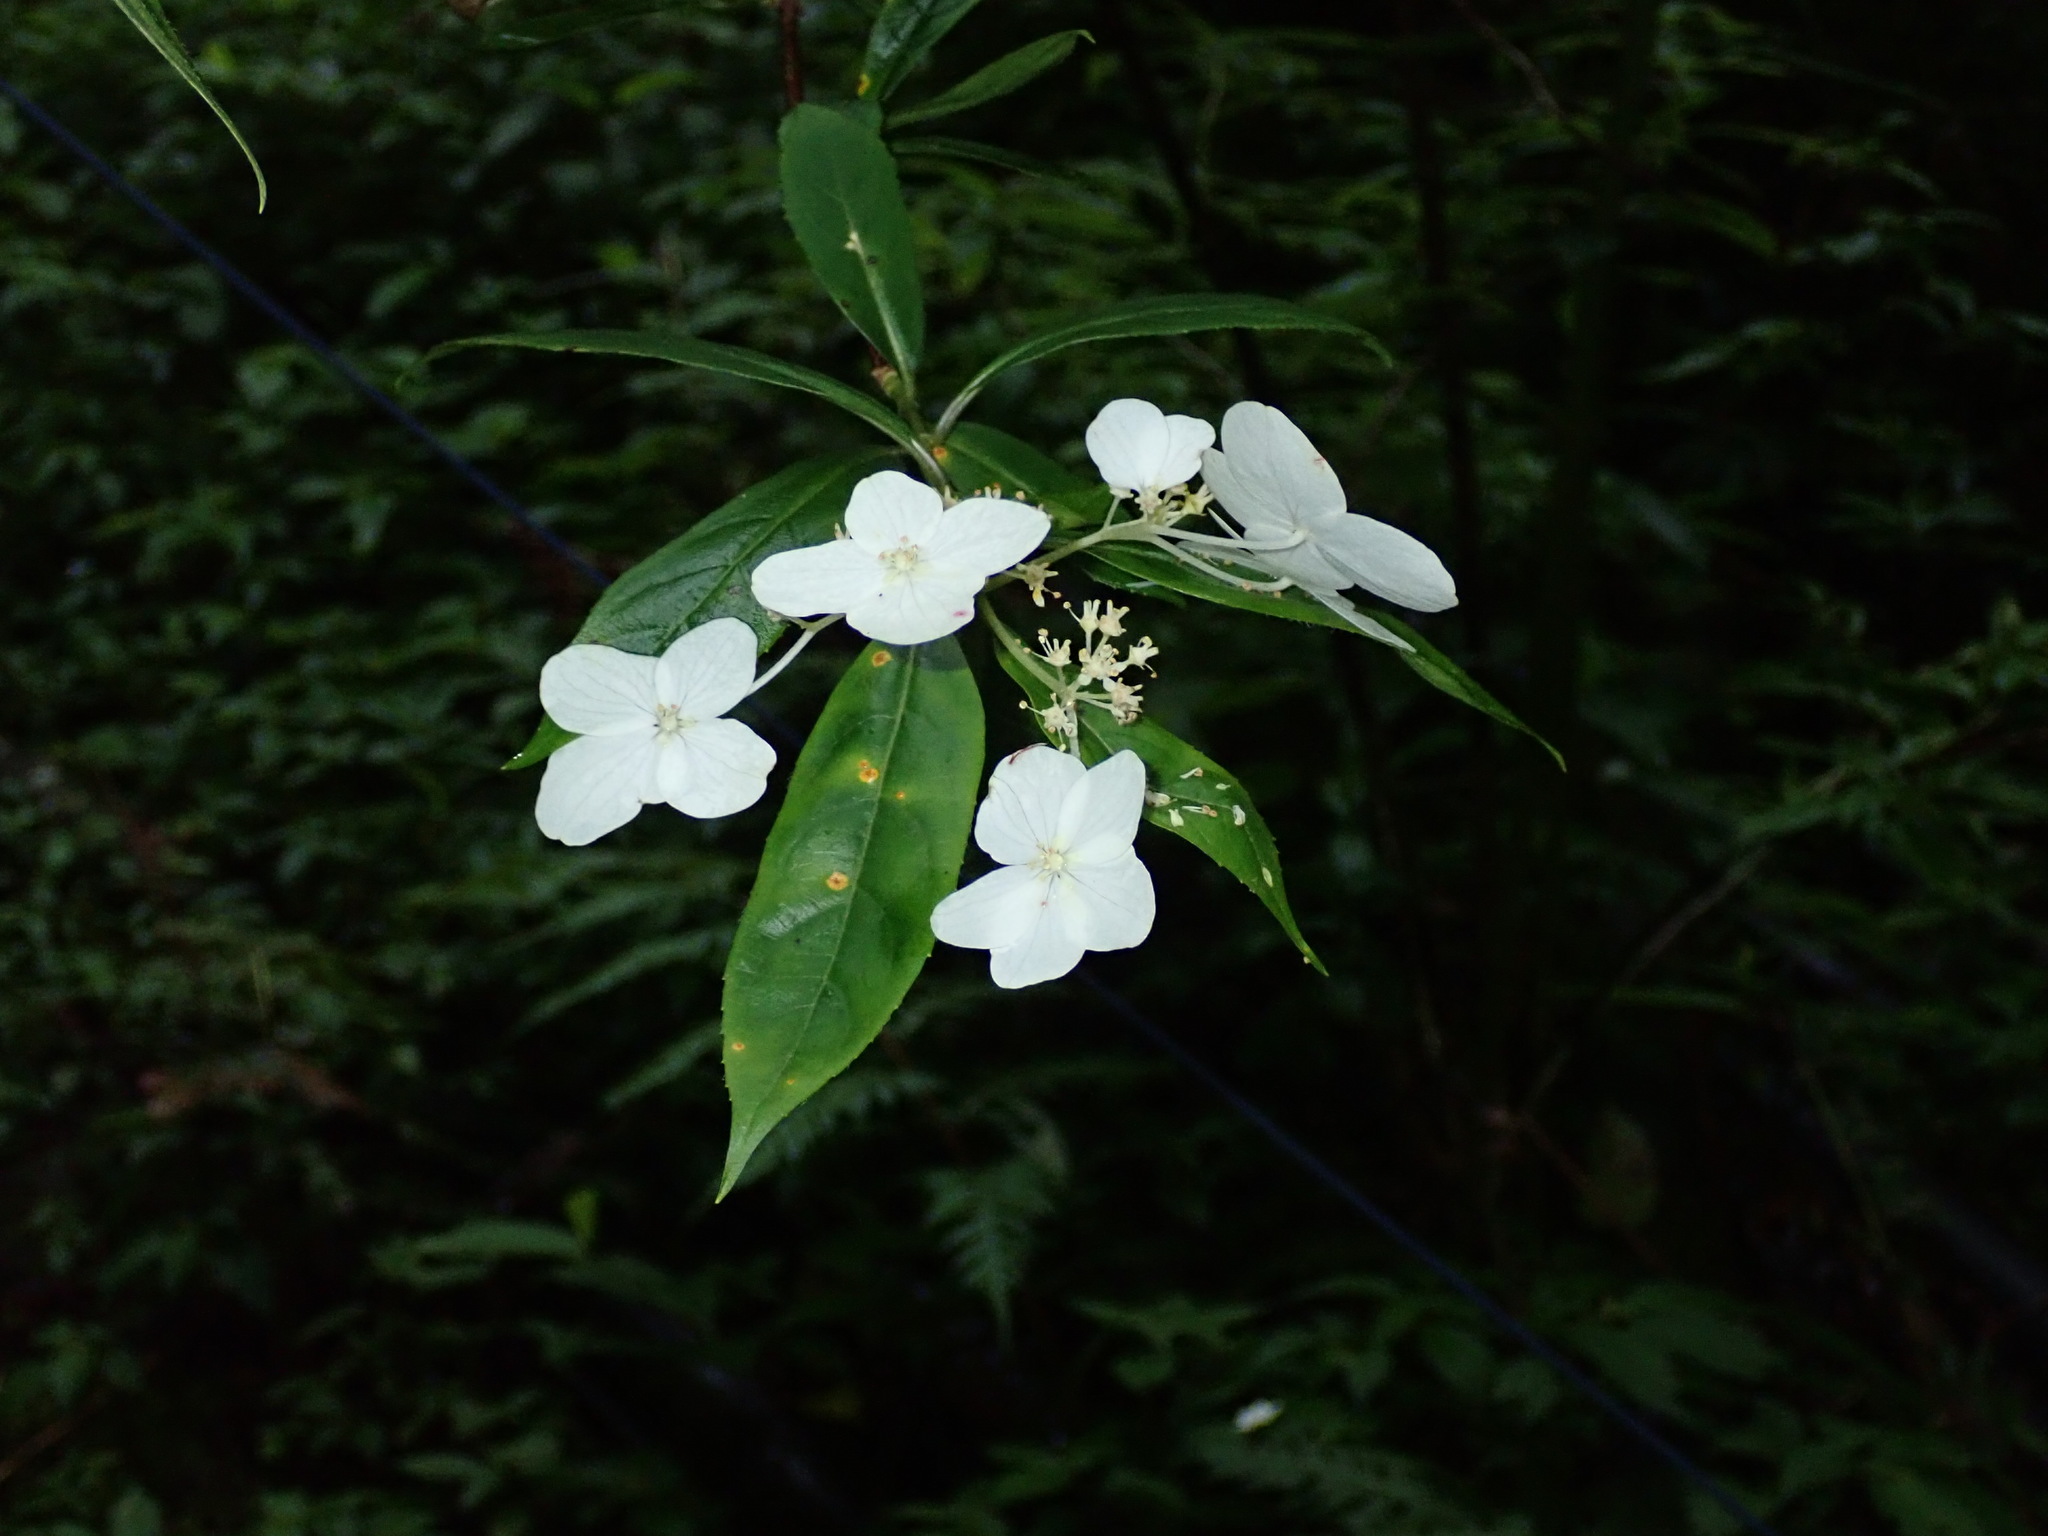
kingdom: Plantae
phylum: Tracheophyta
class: Magnoliopsida
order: Cornales
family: Hydrangeaceae
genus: Hydrangea
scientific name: Hydrangea chinensis
